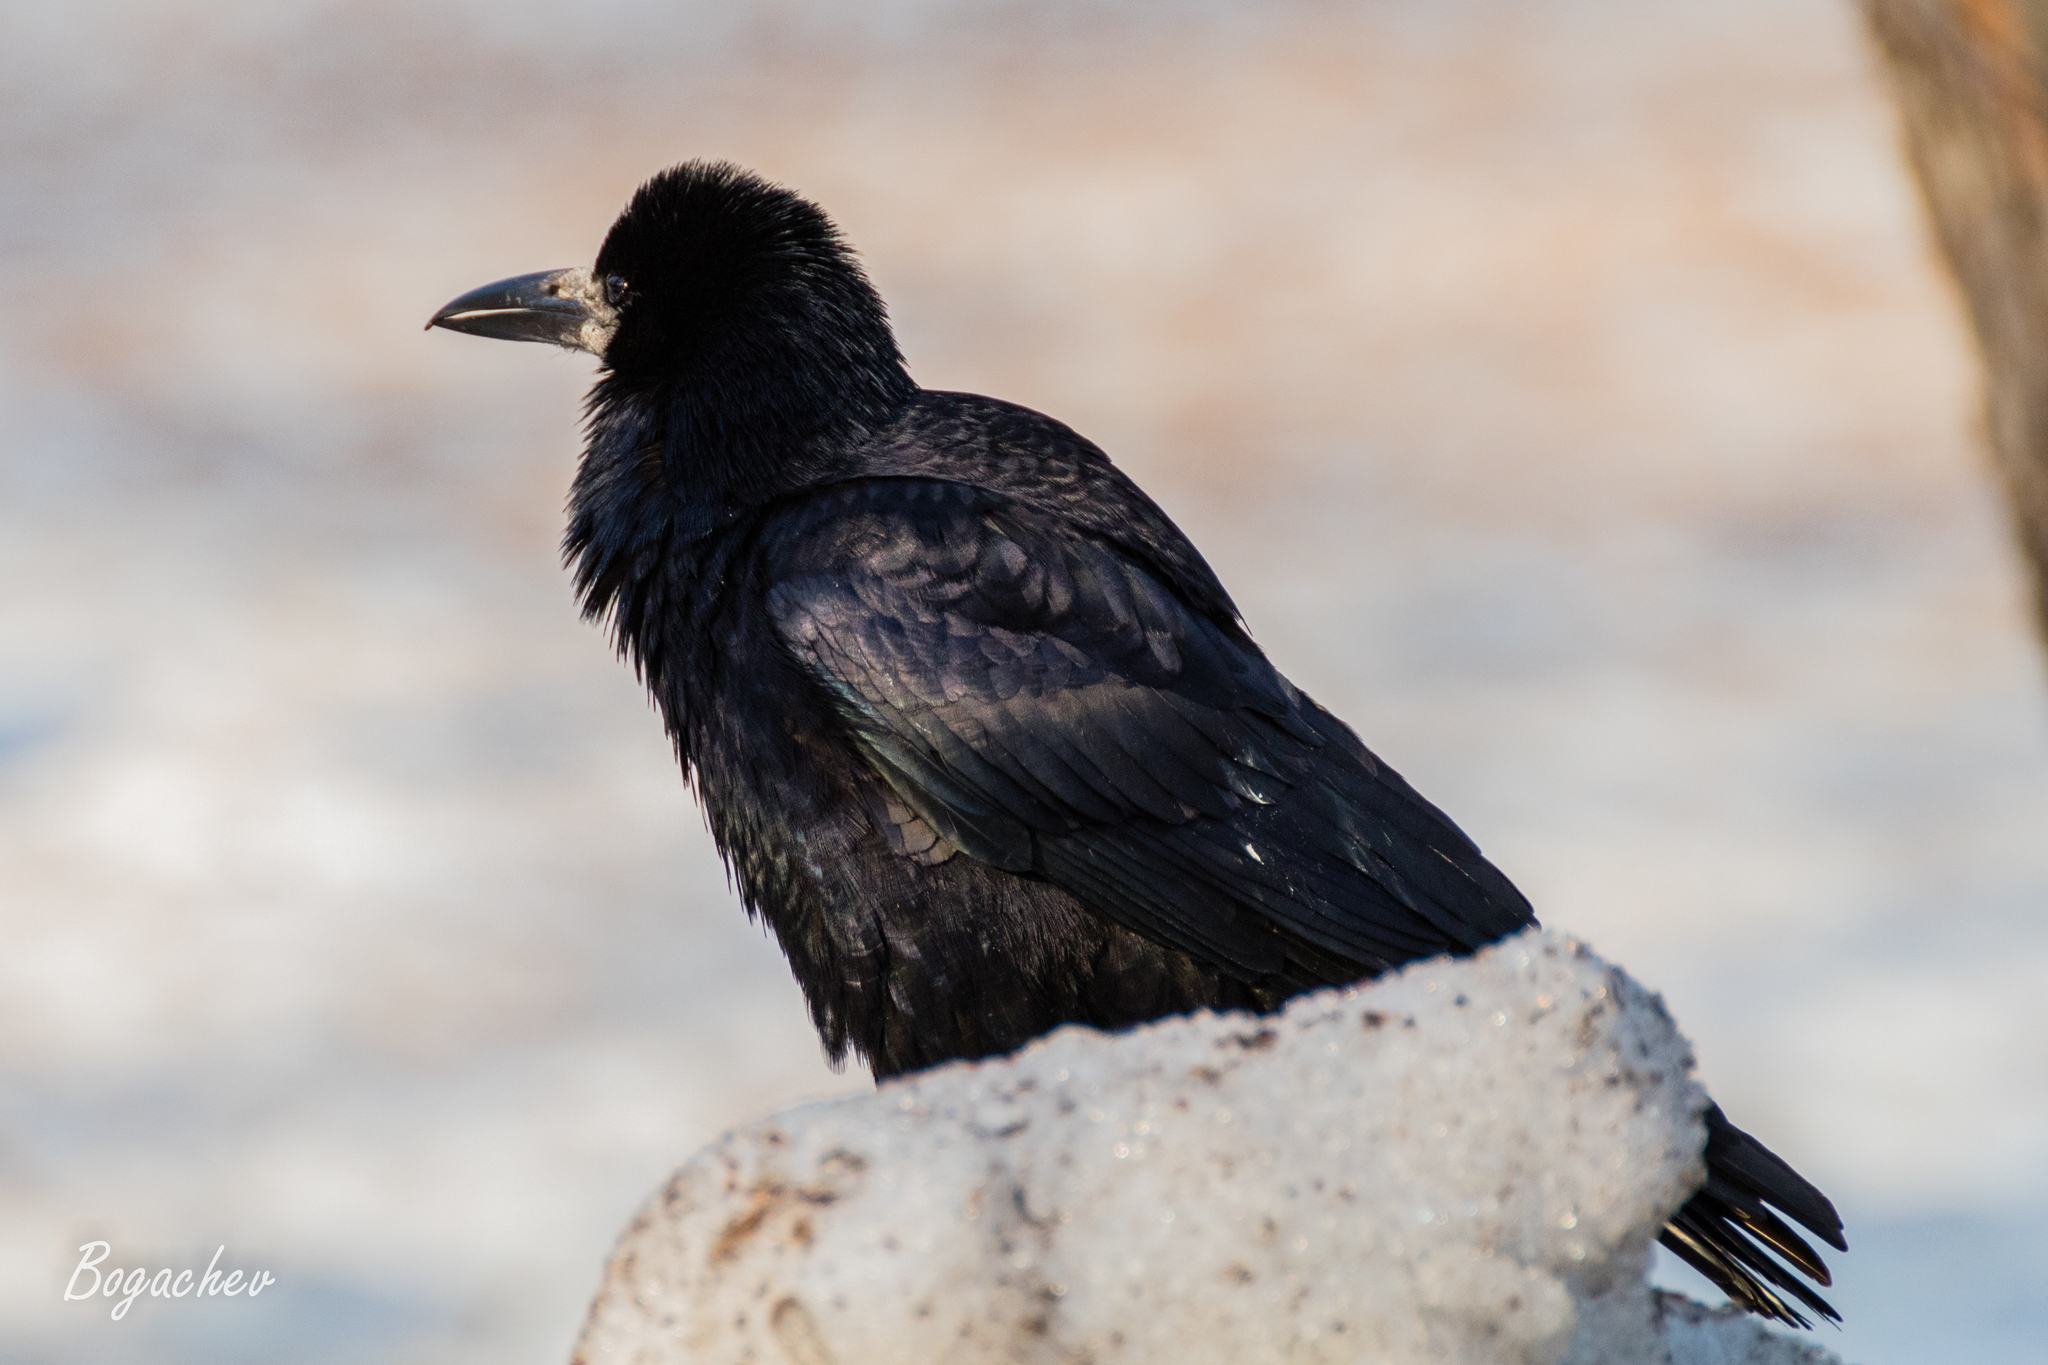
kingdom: Animalia
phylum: Chordata
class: Aves
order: Passeriformes
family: Corvidae
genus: Corvus
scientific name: Corvus frugilegus
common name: Rook
